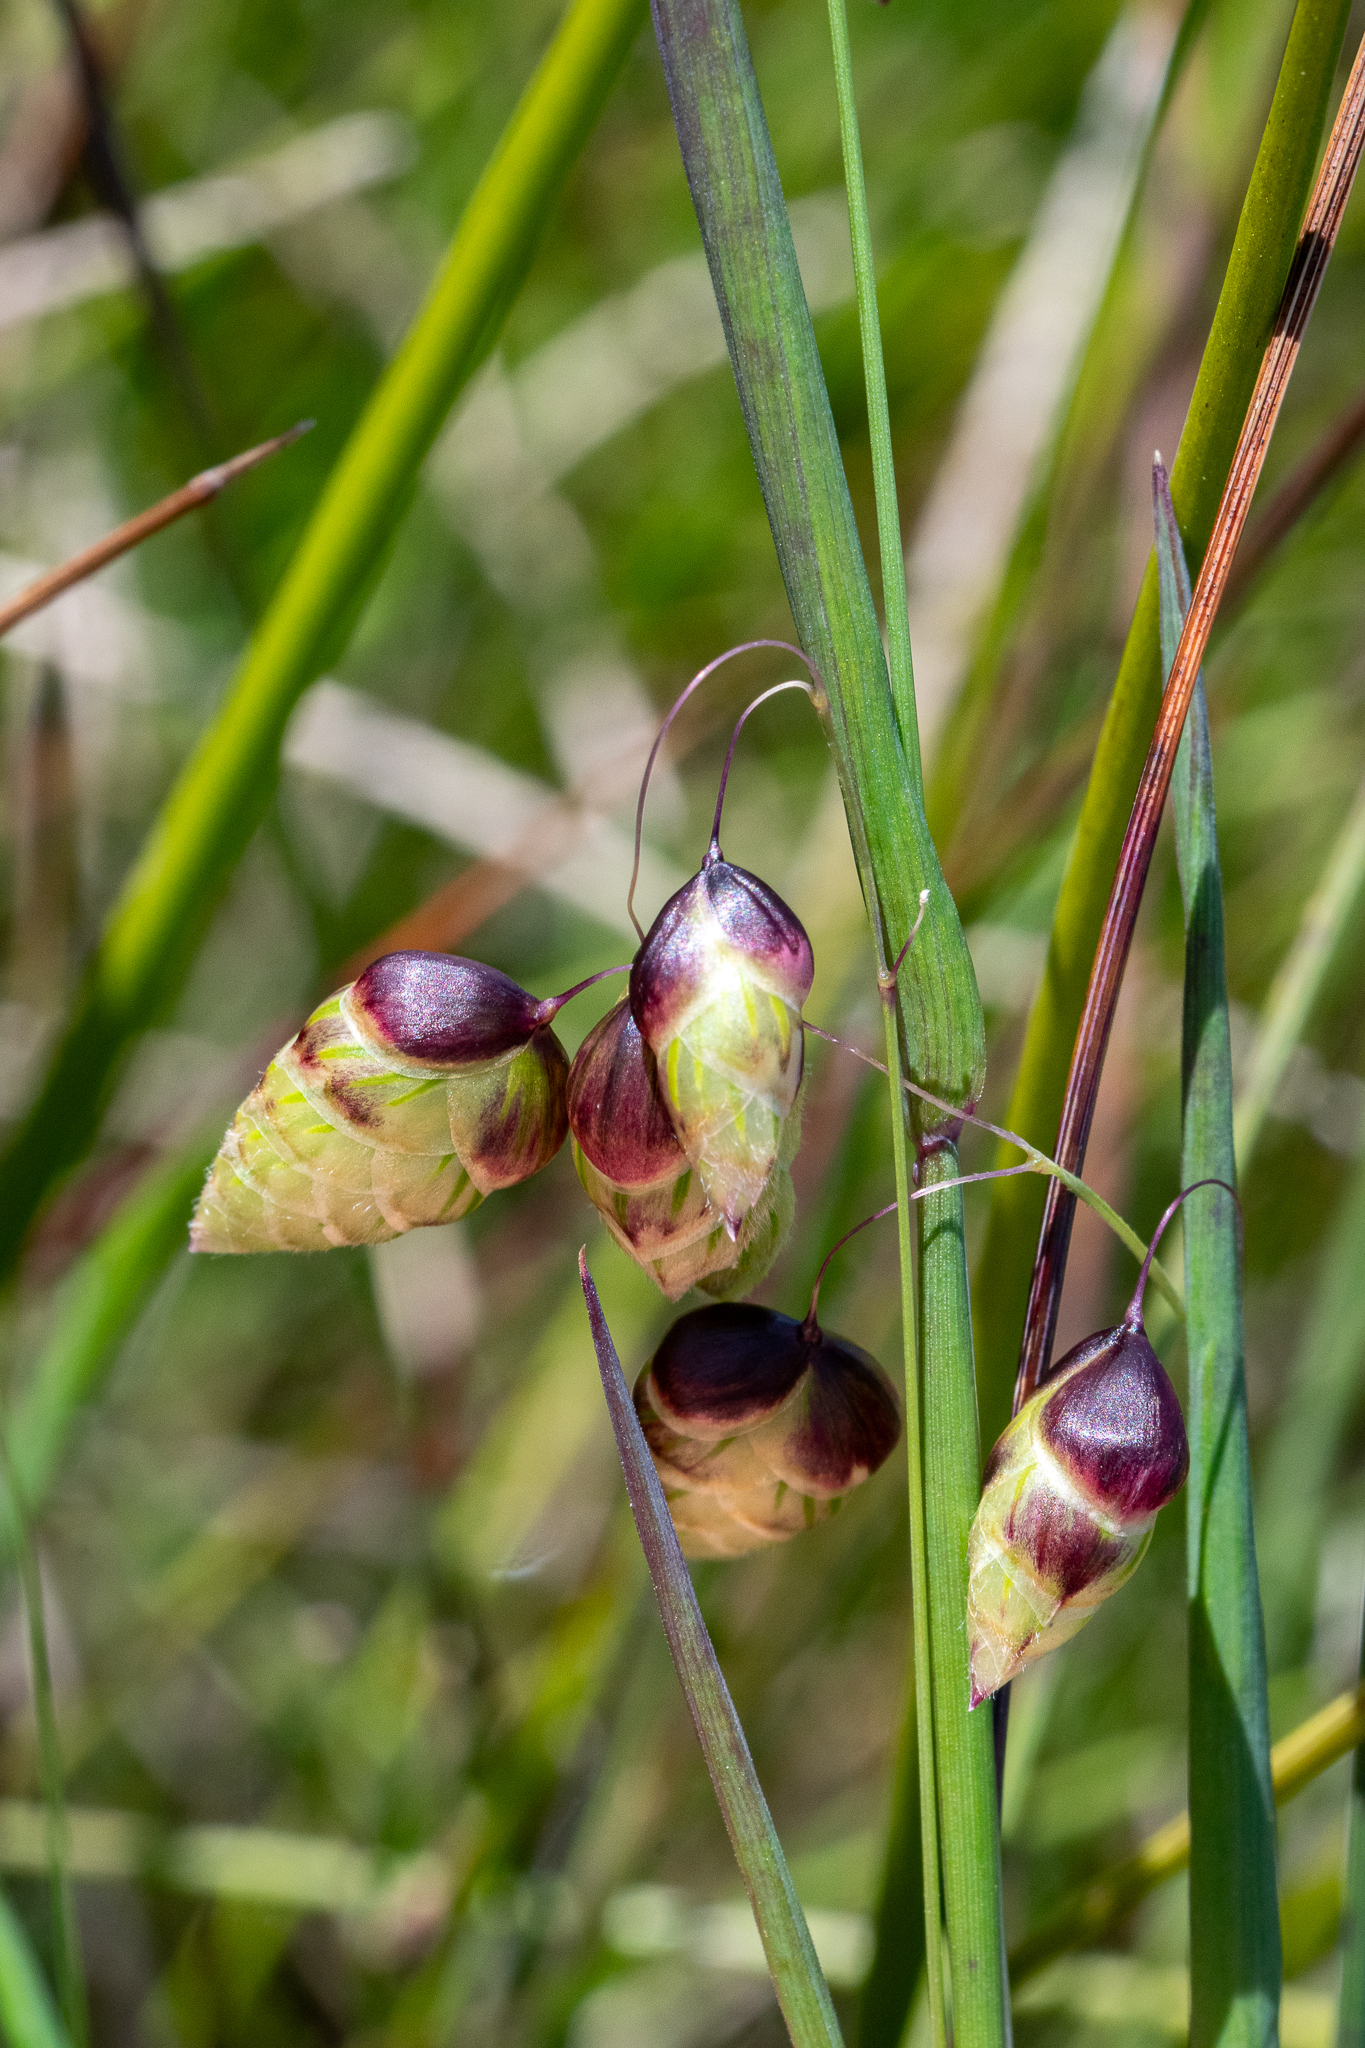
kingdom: Plantae
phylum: Tracheophyta
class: Liliopsida
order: Poales
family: Poaceae
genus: Briza
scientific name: Briza maxima
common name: Big quakinggrass
